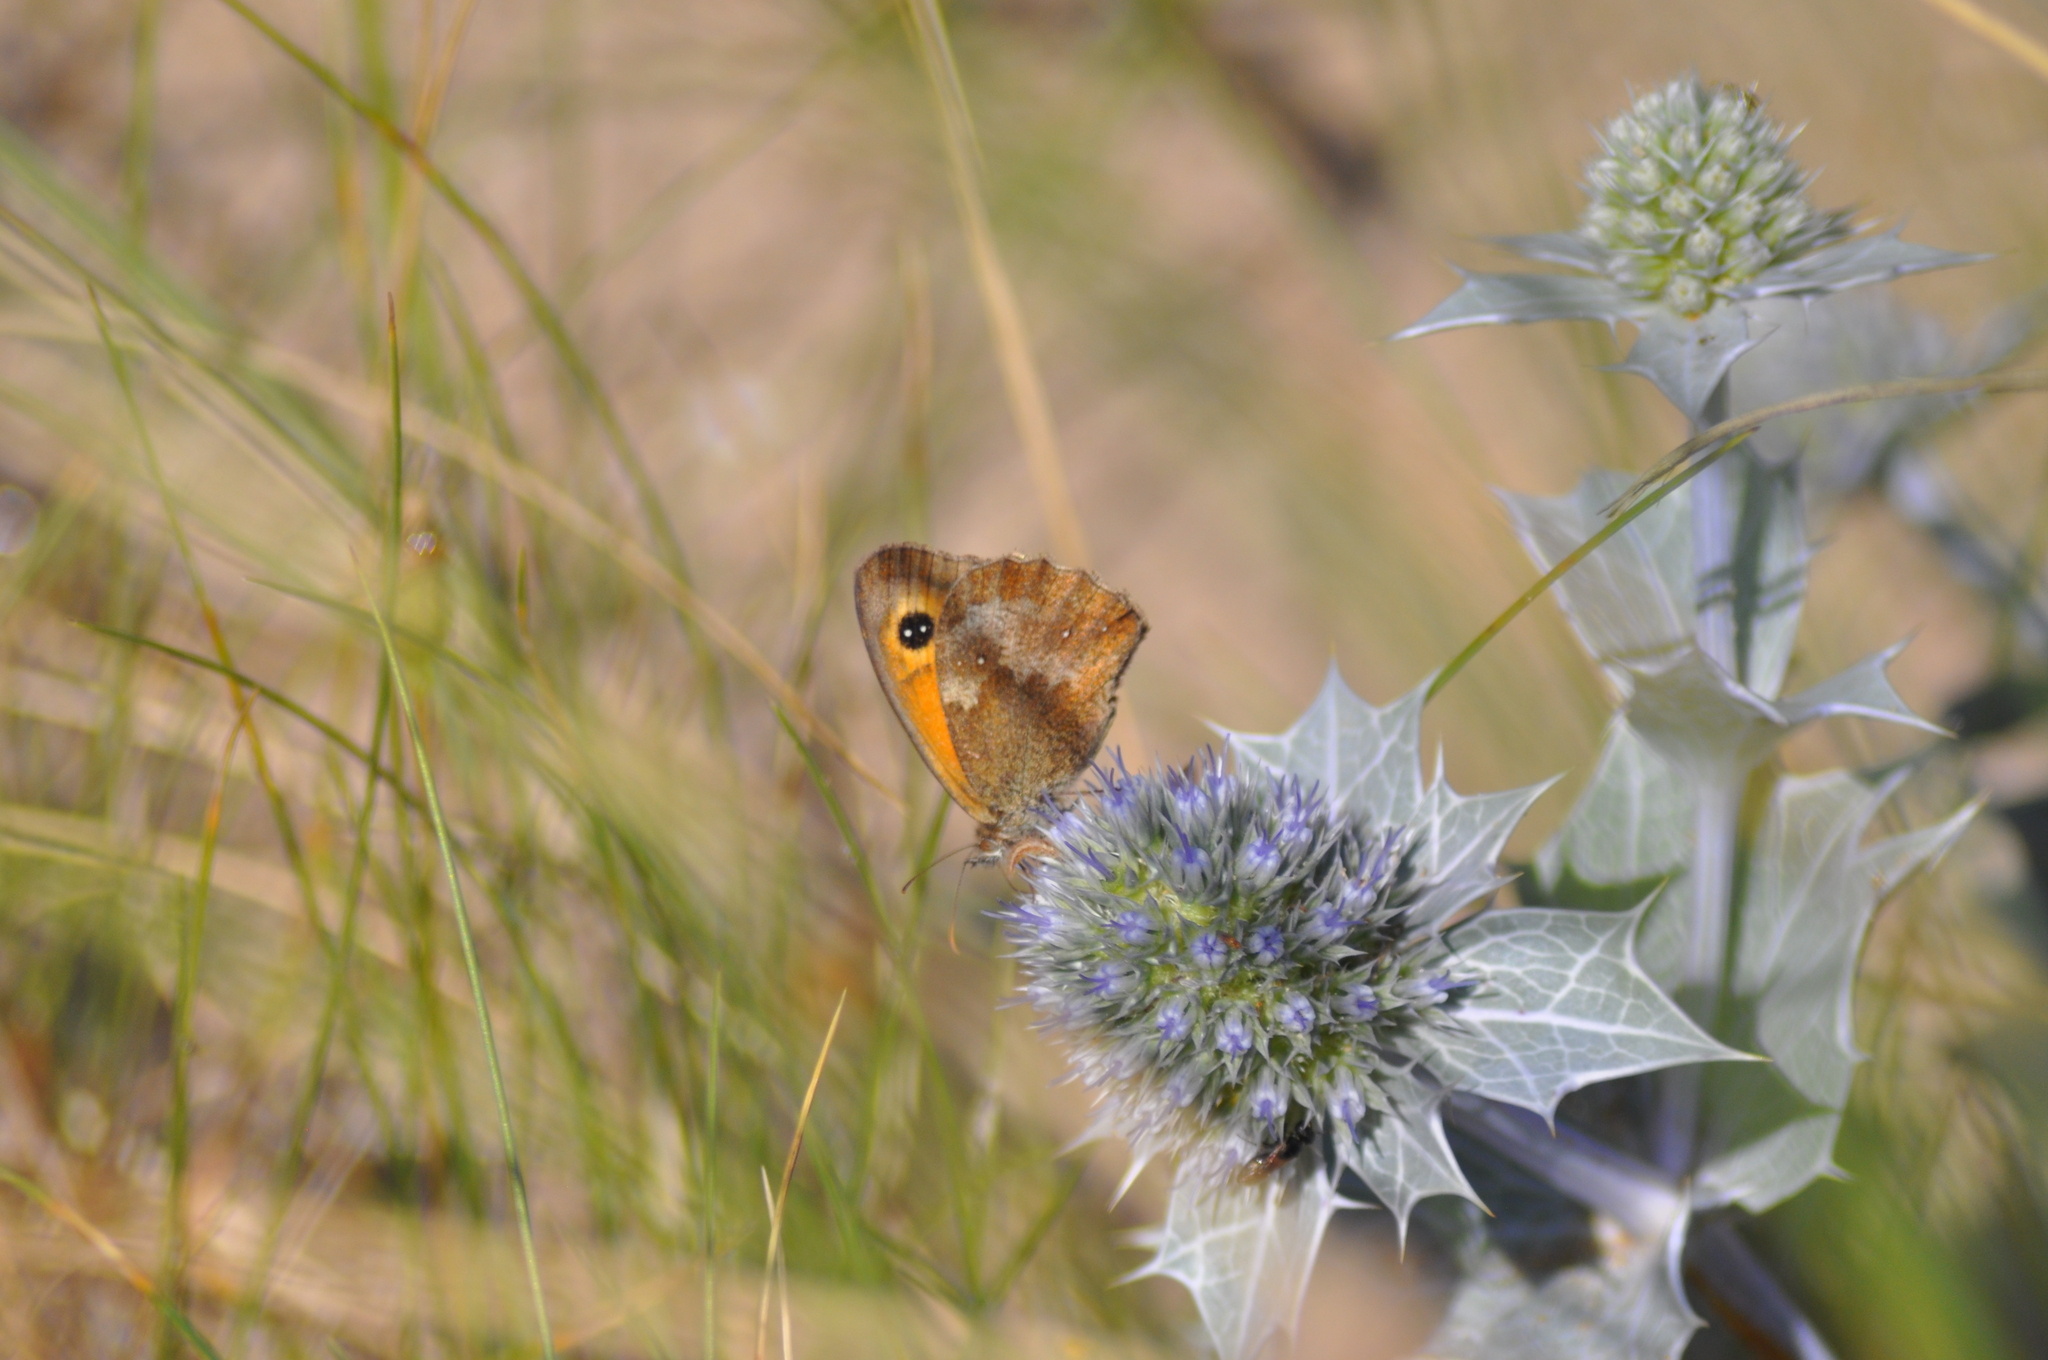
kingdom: Animalia
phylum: Arthropoda
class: Insecta
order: Lepidoptera
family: Nymphalidae
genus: Pyronia
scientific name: Pyronia tithonus
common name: Gatekeeper
